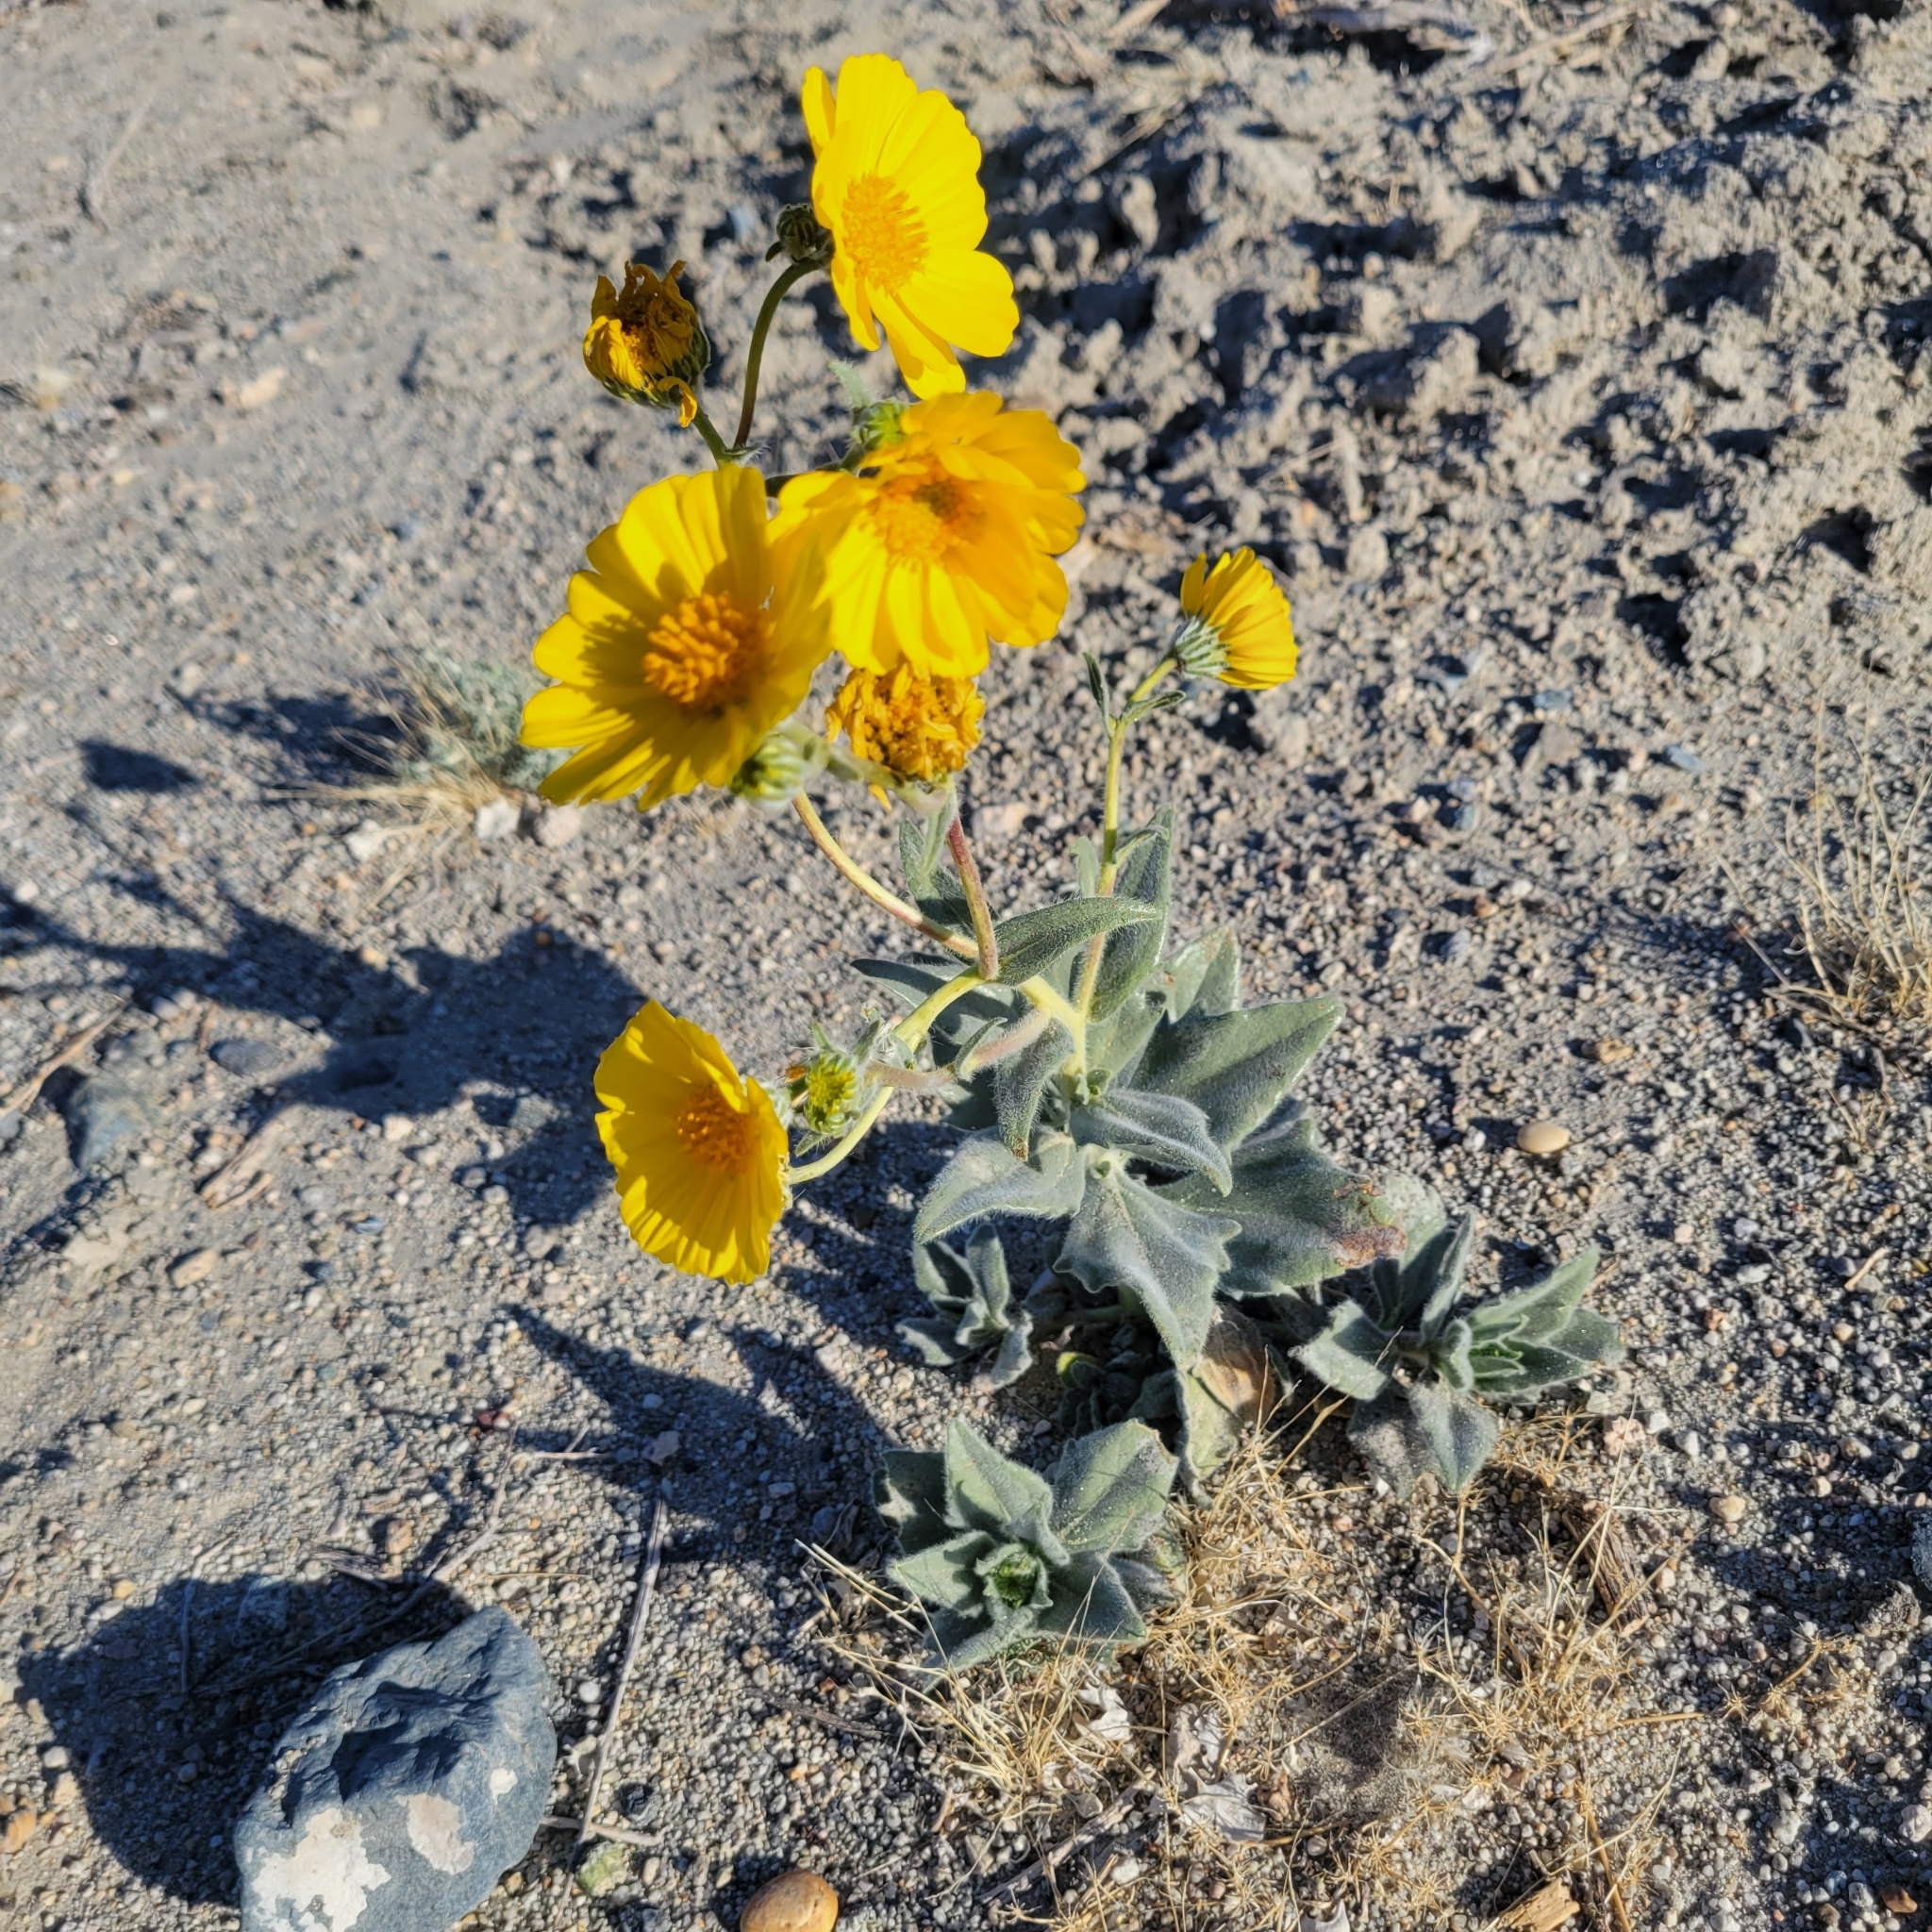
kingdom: Plantae
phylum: Tracheophyta
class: Magnoliopsida
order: Asterales
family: Asteraceae
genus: Geraea
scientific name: Geraea canescens
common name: Desert-gold
